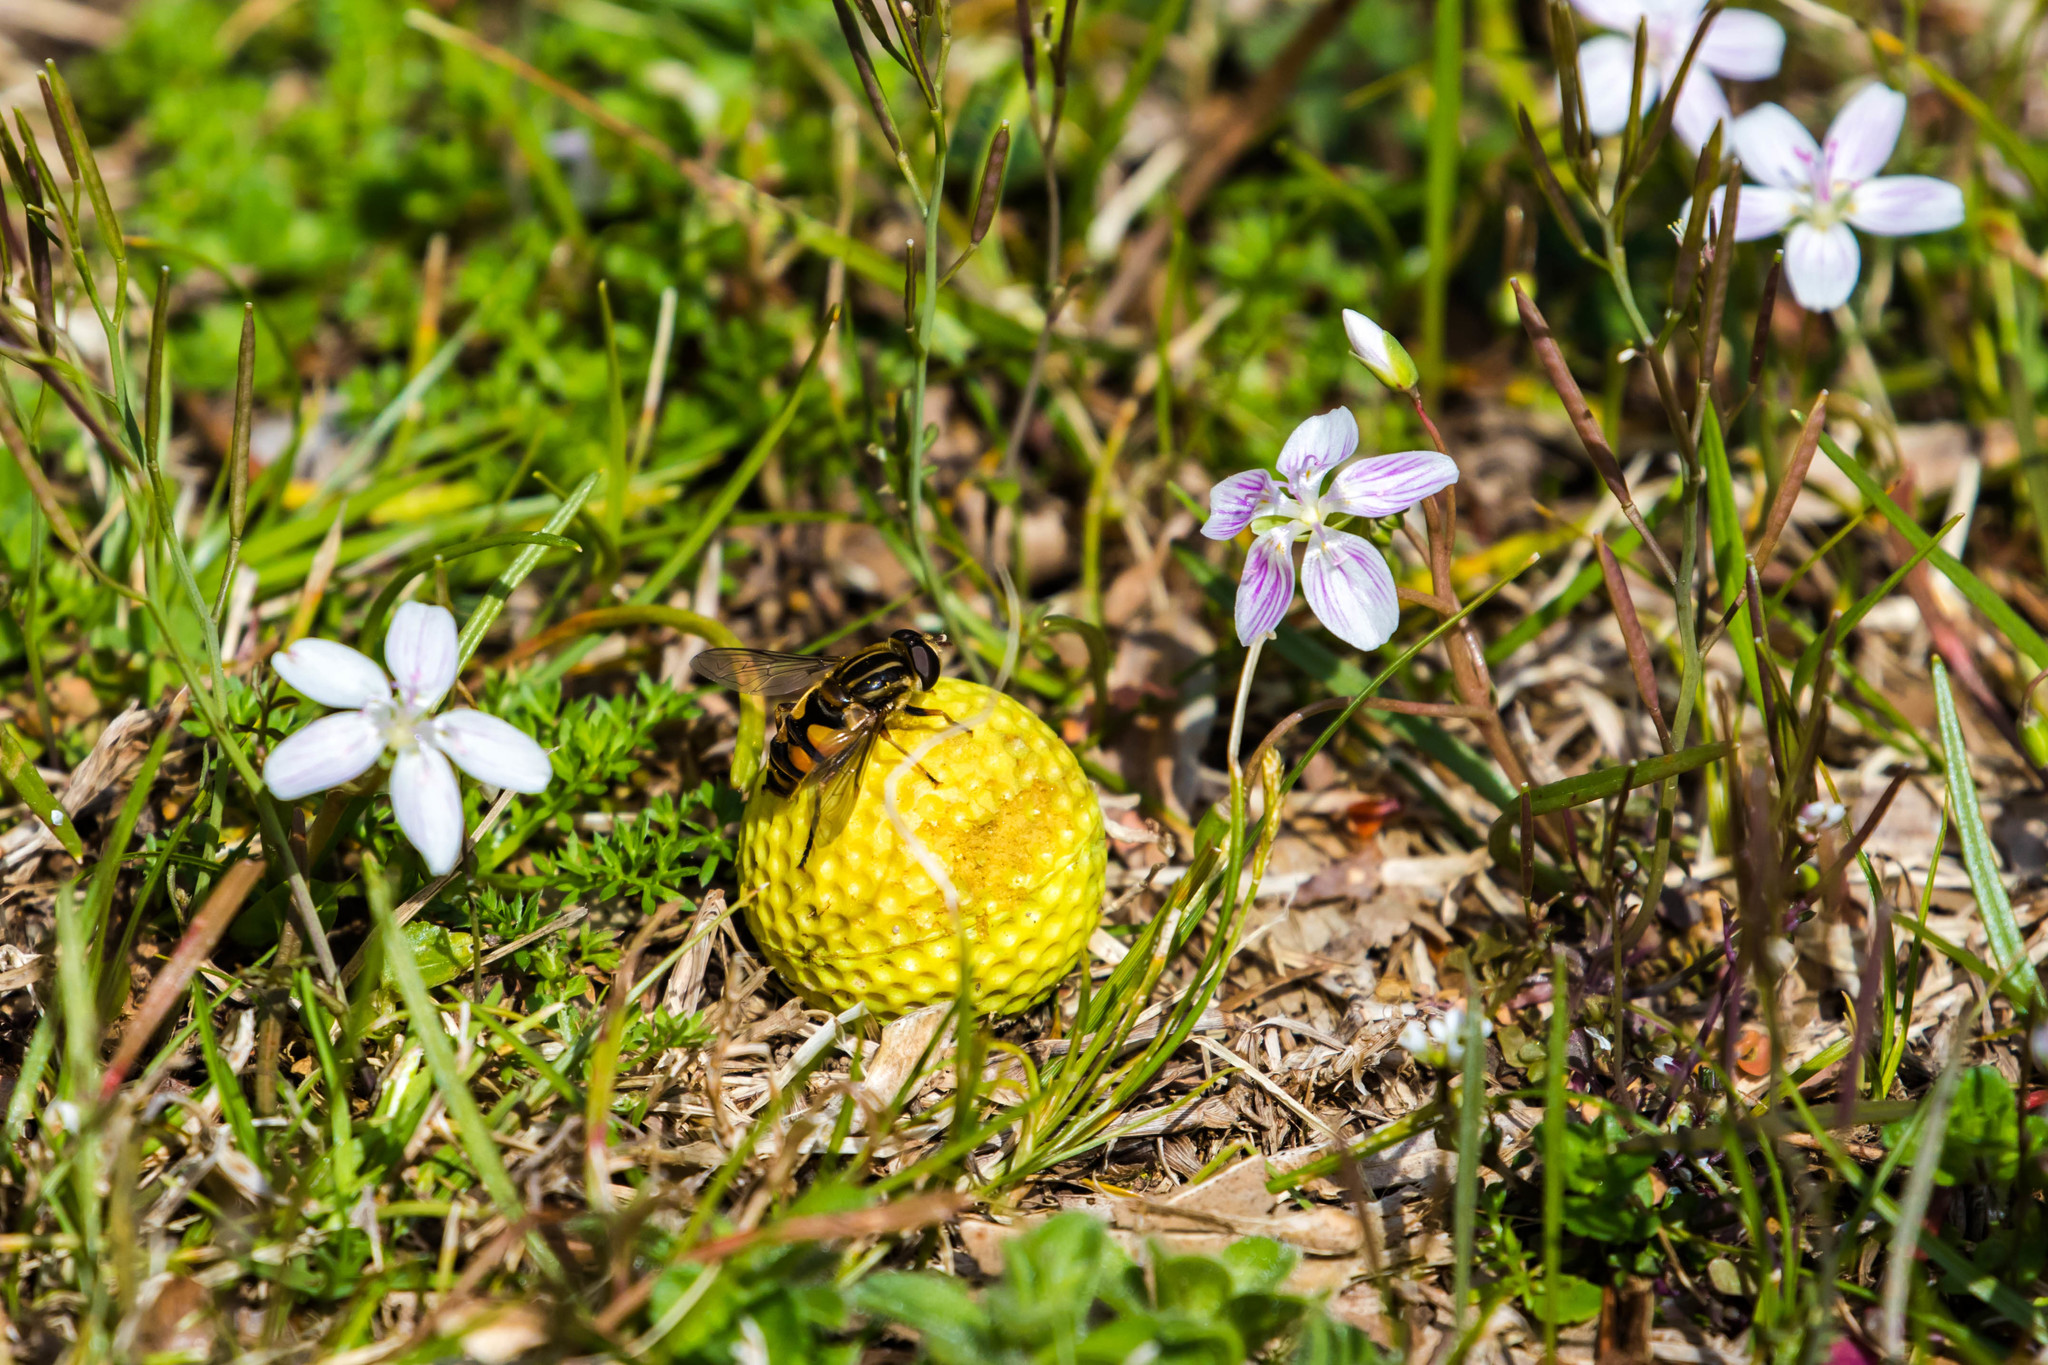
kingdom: Animalia
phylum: Arthropoda
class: Insecta
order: Diptera
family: Syrphidae
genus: Helophilus
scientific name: Helophilus fasciatus
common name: Narrow-headed marsh fly
